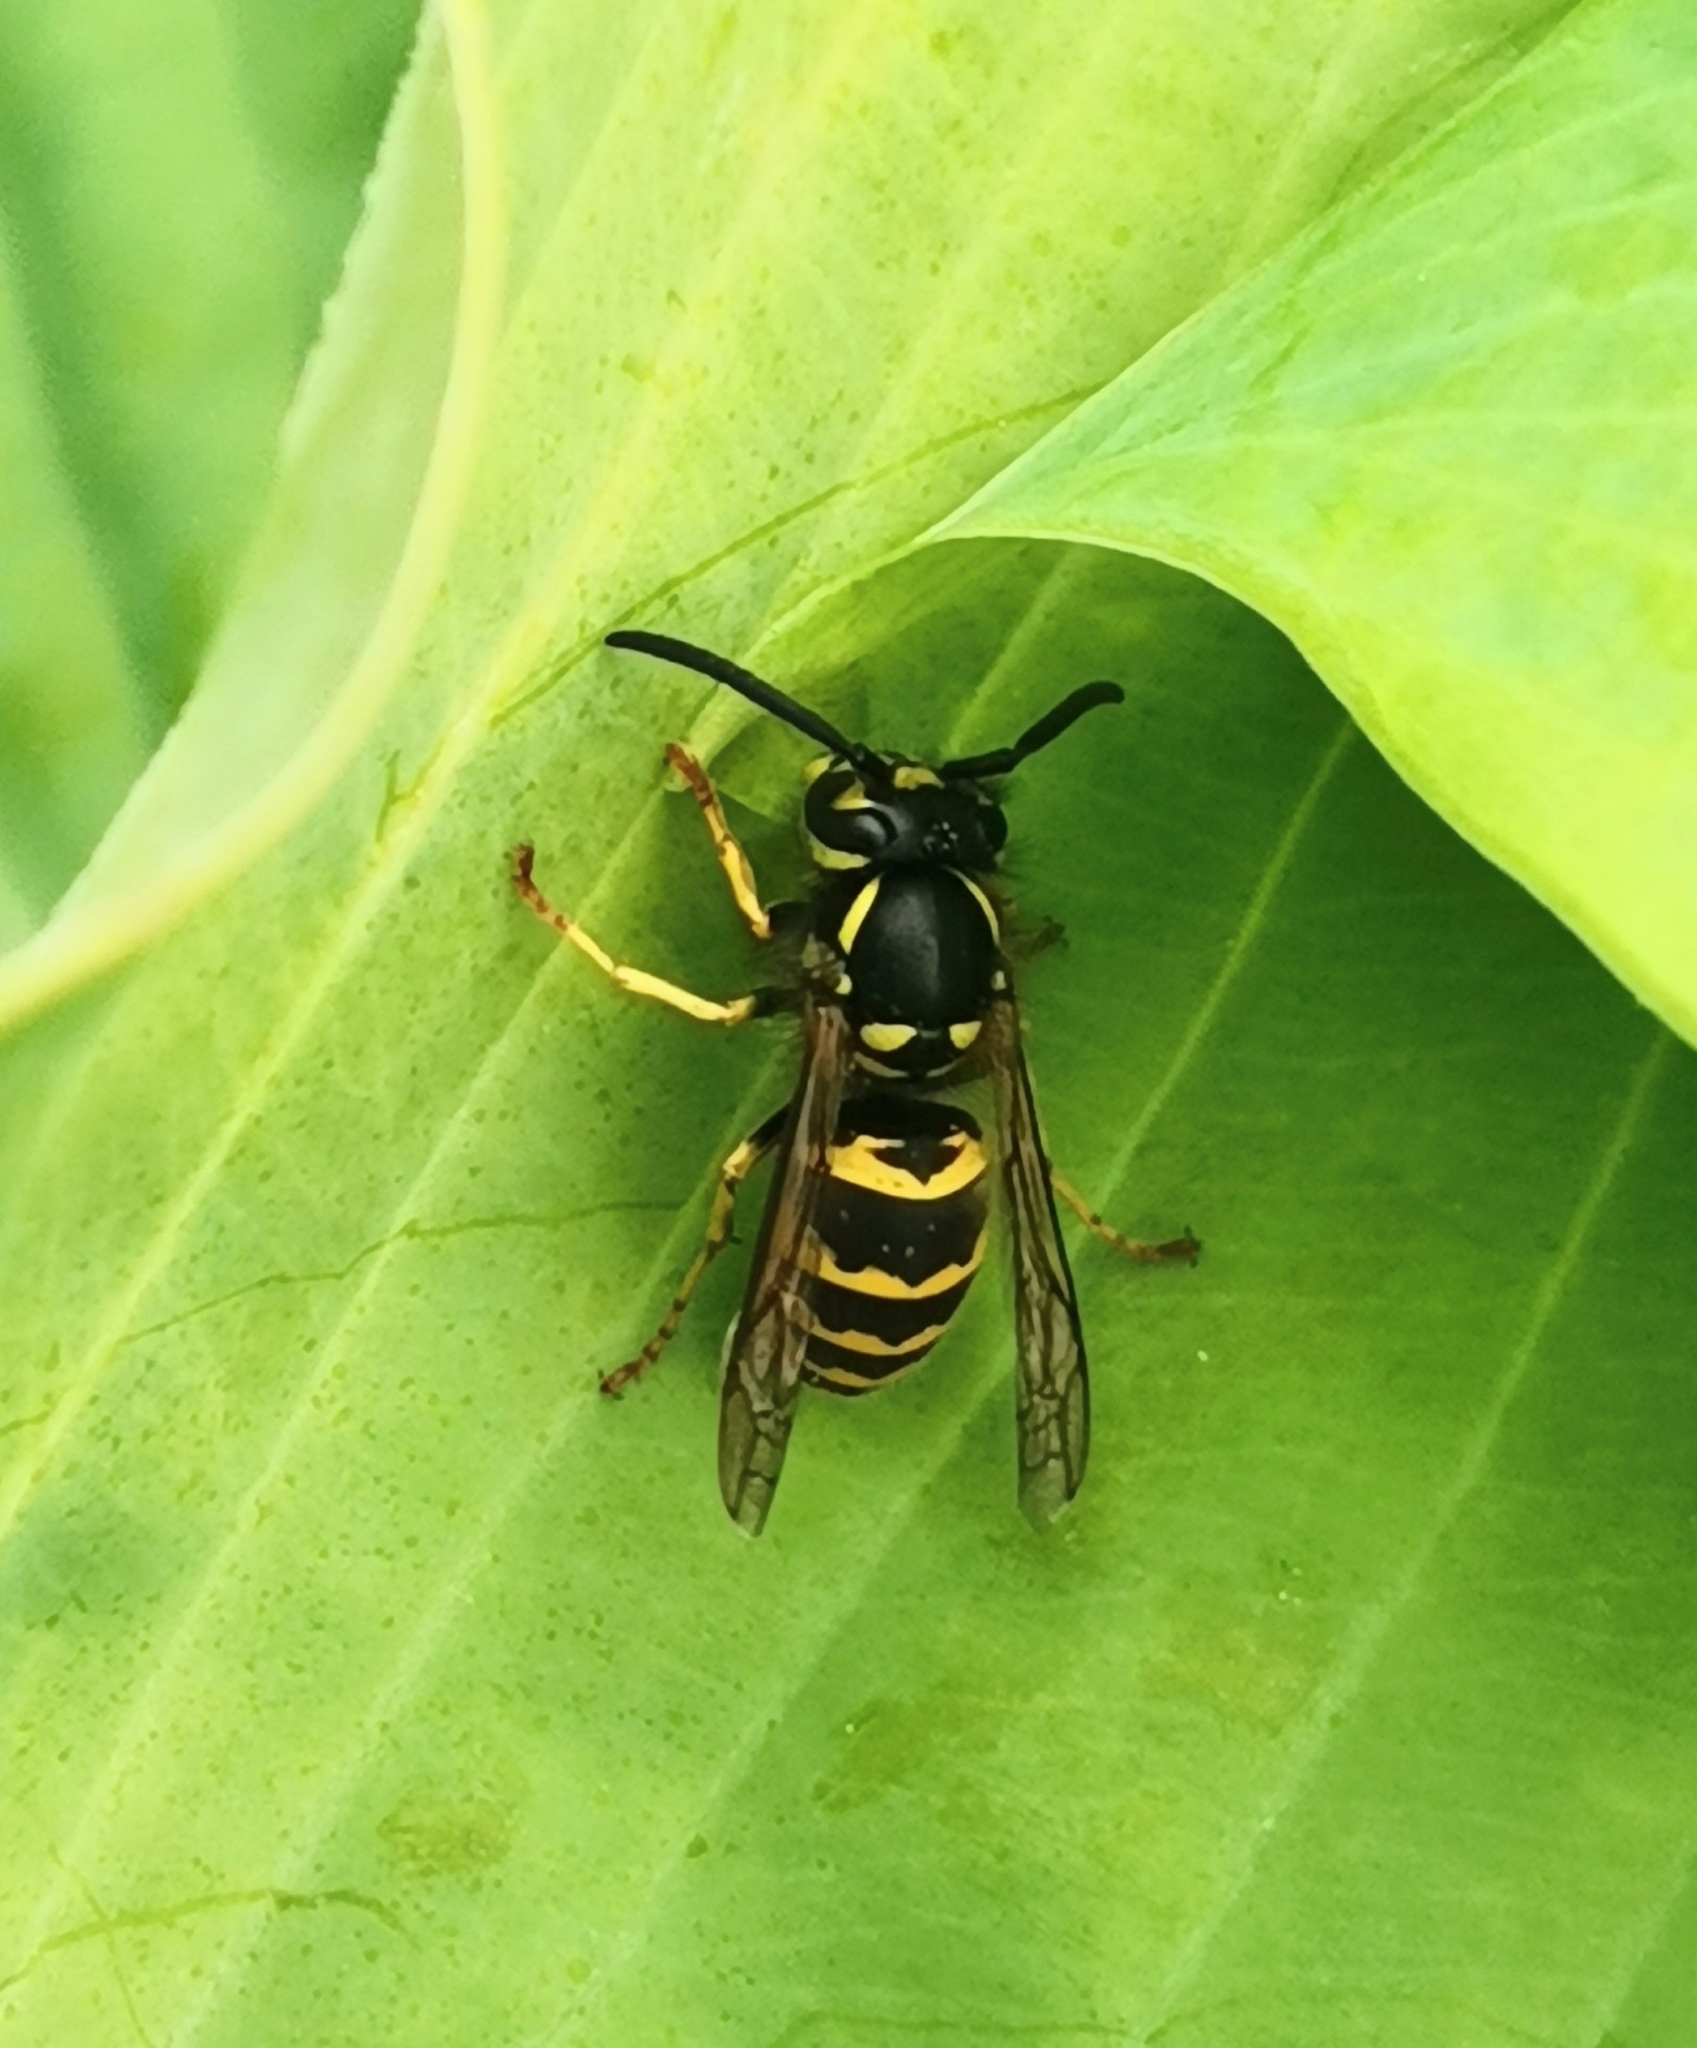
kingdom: Animalia
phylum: Arthropoda
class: Insecta
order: Hymenoptera
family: Vespidae
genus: Vespula
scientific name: Vespula vulgaris
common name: Common wasp
